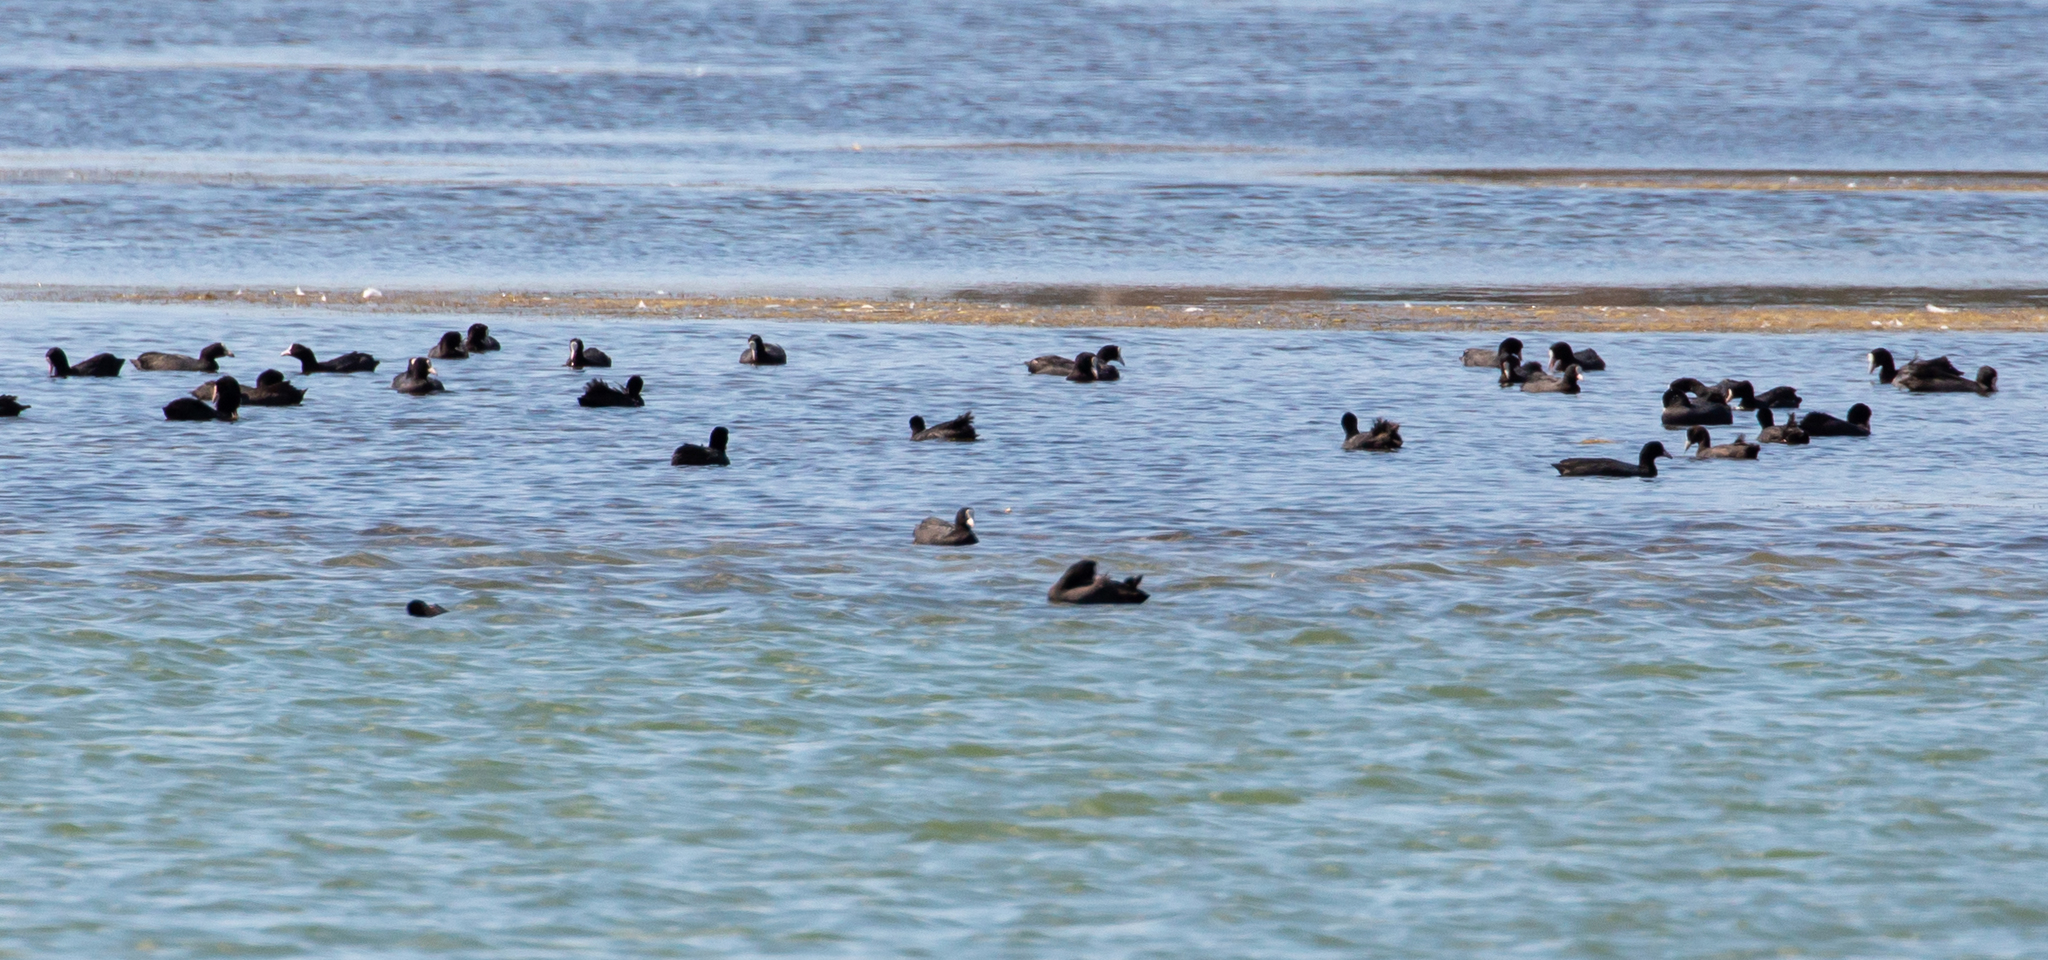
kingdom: Animalia
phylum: Chordata
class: Aves
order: Gruiformes
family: Rallidae
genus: Fulica
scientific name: Fulica atra
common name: Eurasian coot
